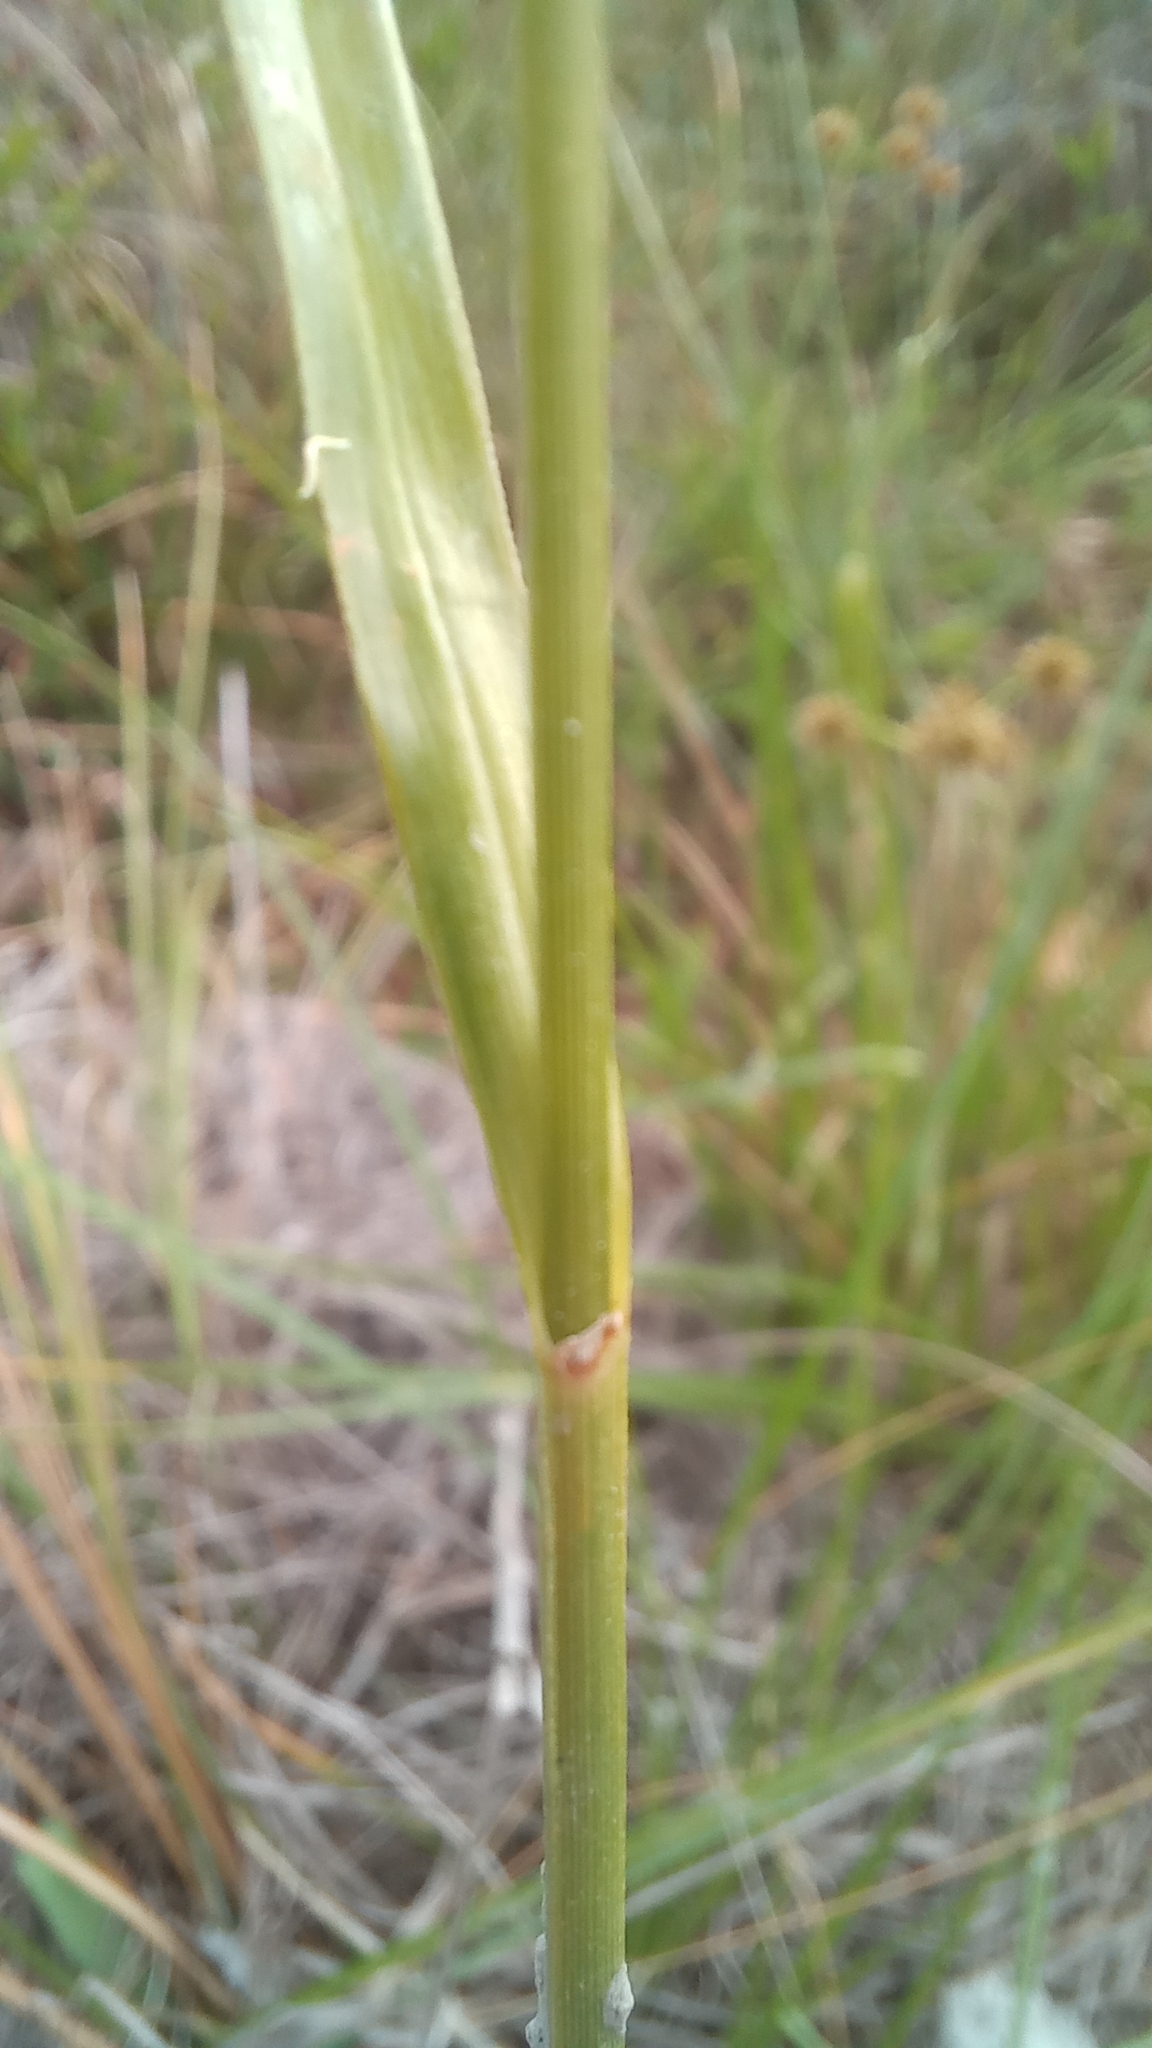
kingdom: Plantae
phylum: Tracheophyta
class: Liliopsida
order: Poales
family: Cyperaceae
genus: Rhynchospora
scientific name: Rhynchospora holoschoenoides
